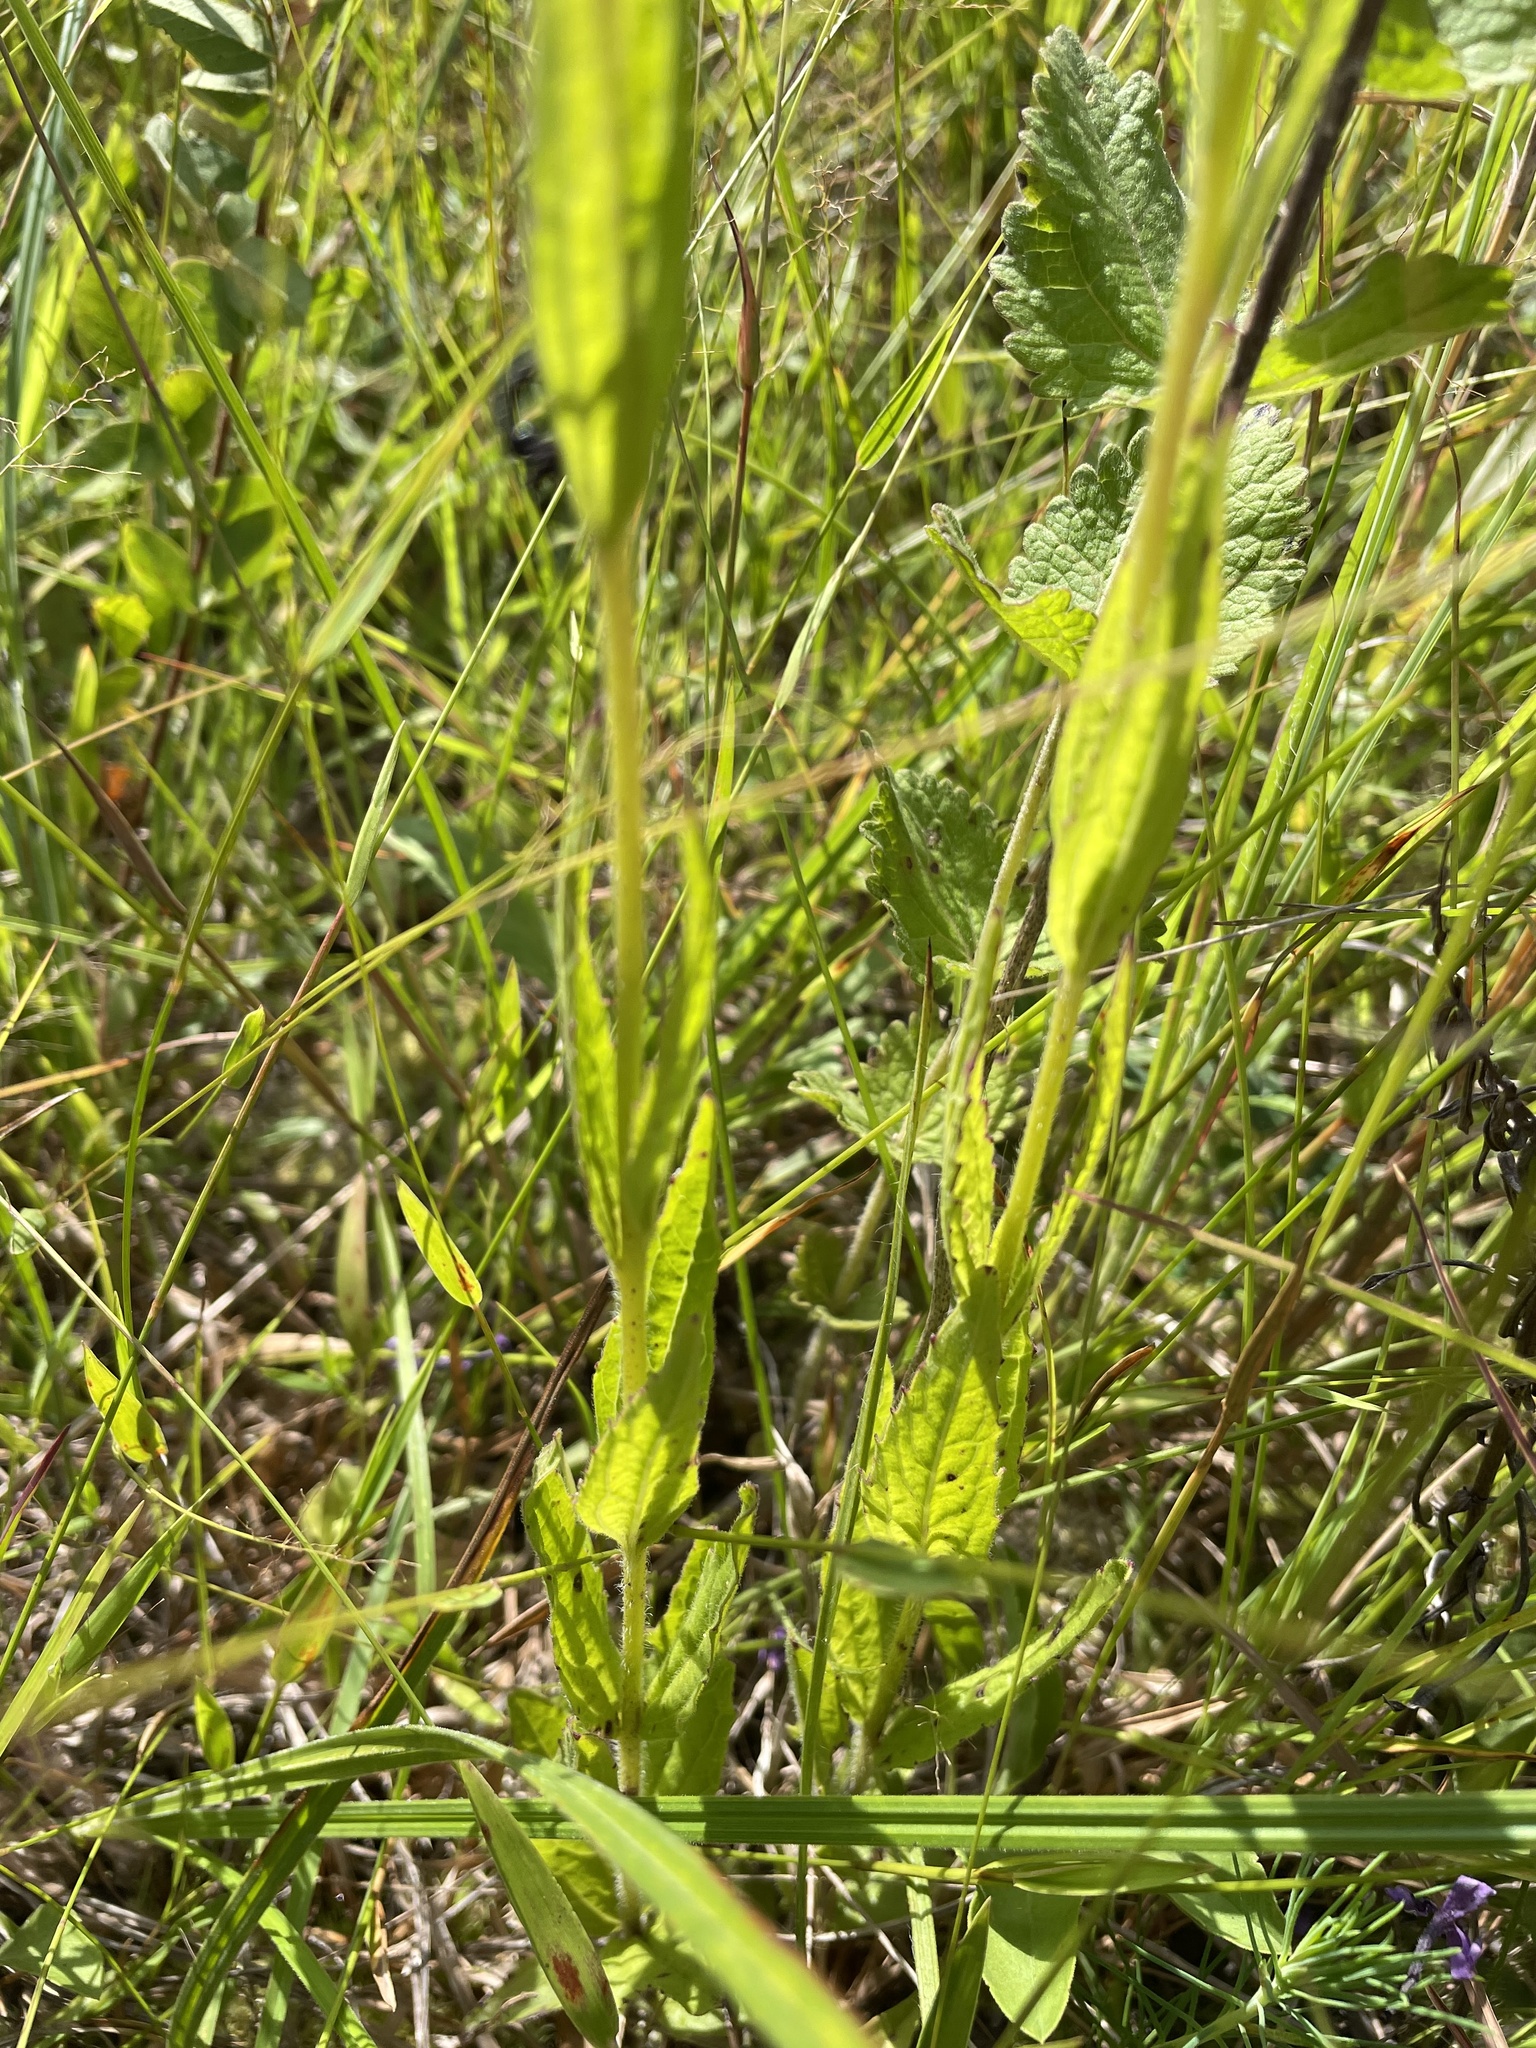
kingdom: Plantae
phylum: Tracheophyta
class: Magnoliopsida
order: Lamiales
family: Orobanchaceae
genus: Buchnera
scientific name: Buchnera americana
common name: American bluehearts
